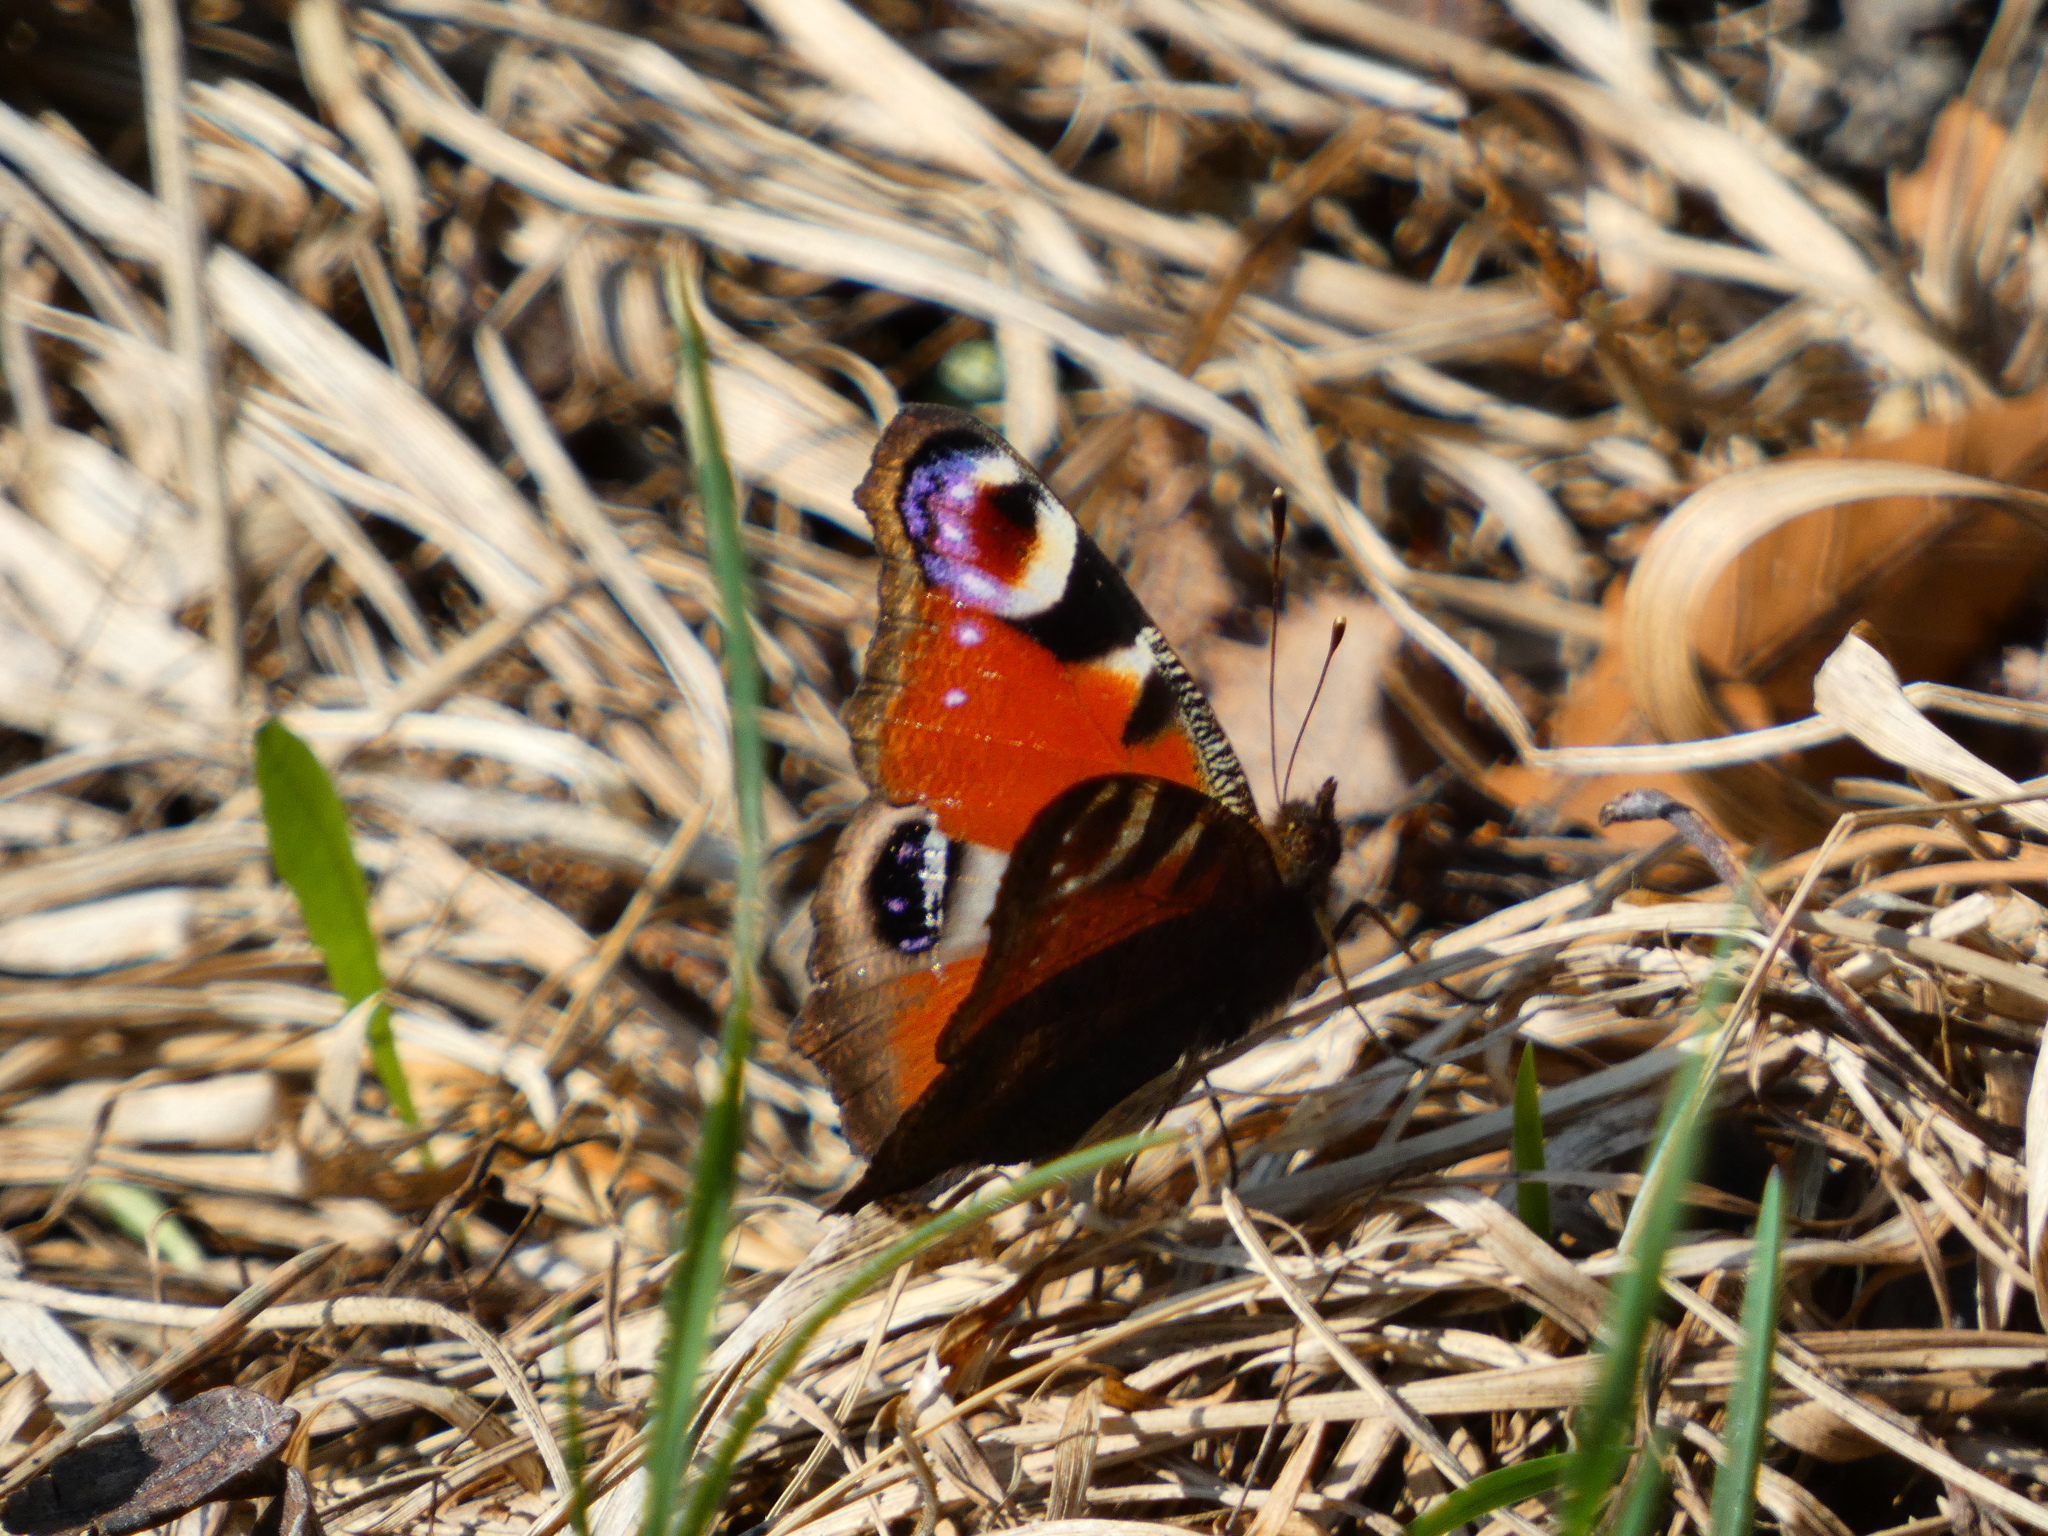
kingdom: Animalia
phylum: Arthropoda
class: Insecta
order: Lepidoptera
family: Nymphalidae
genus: Aglais
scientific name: Aglais io
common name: Peacock
